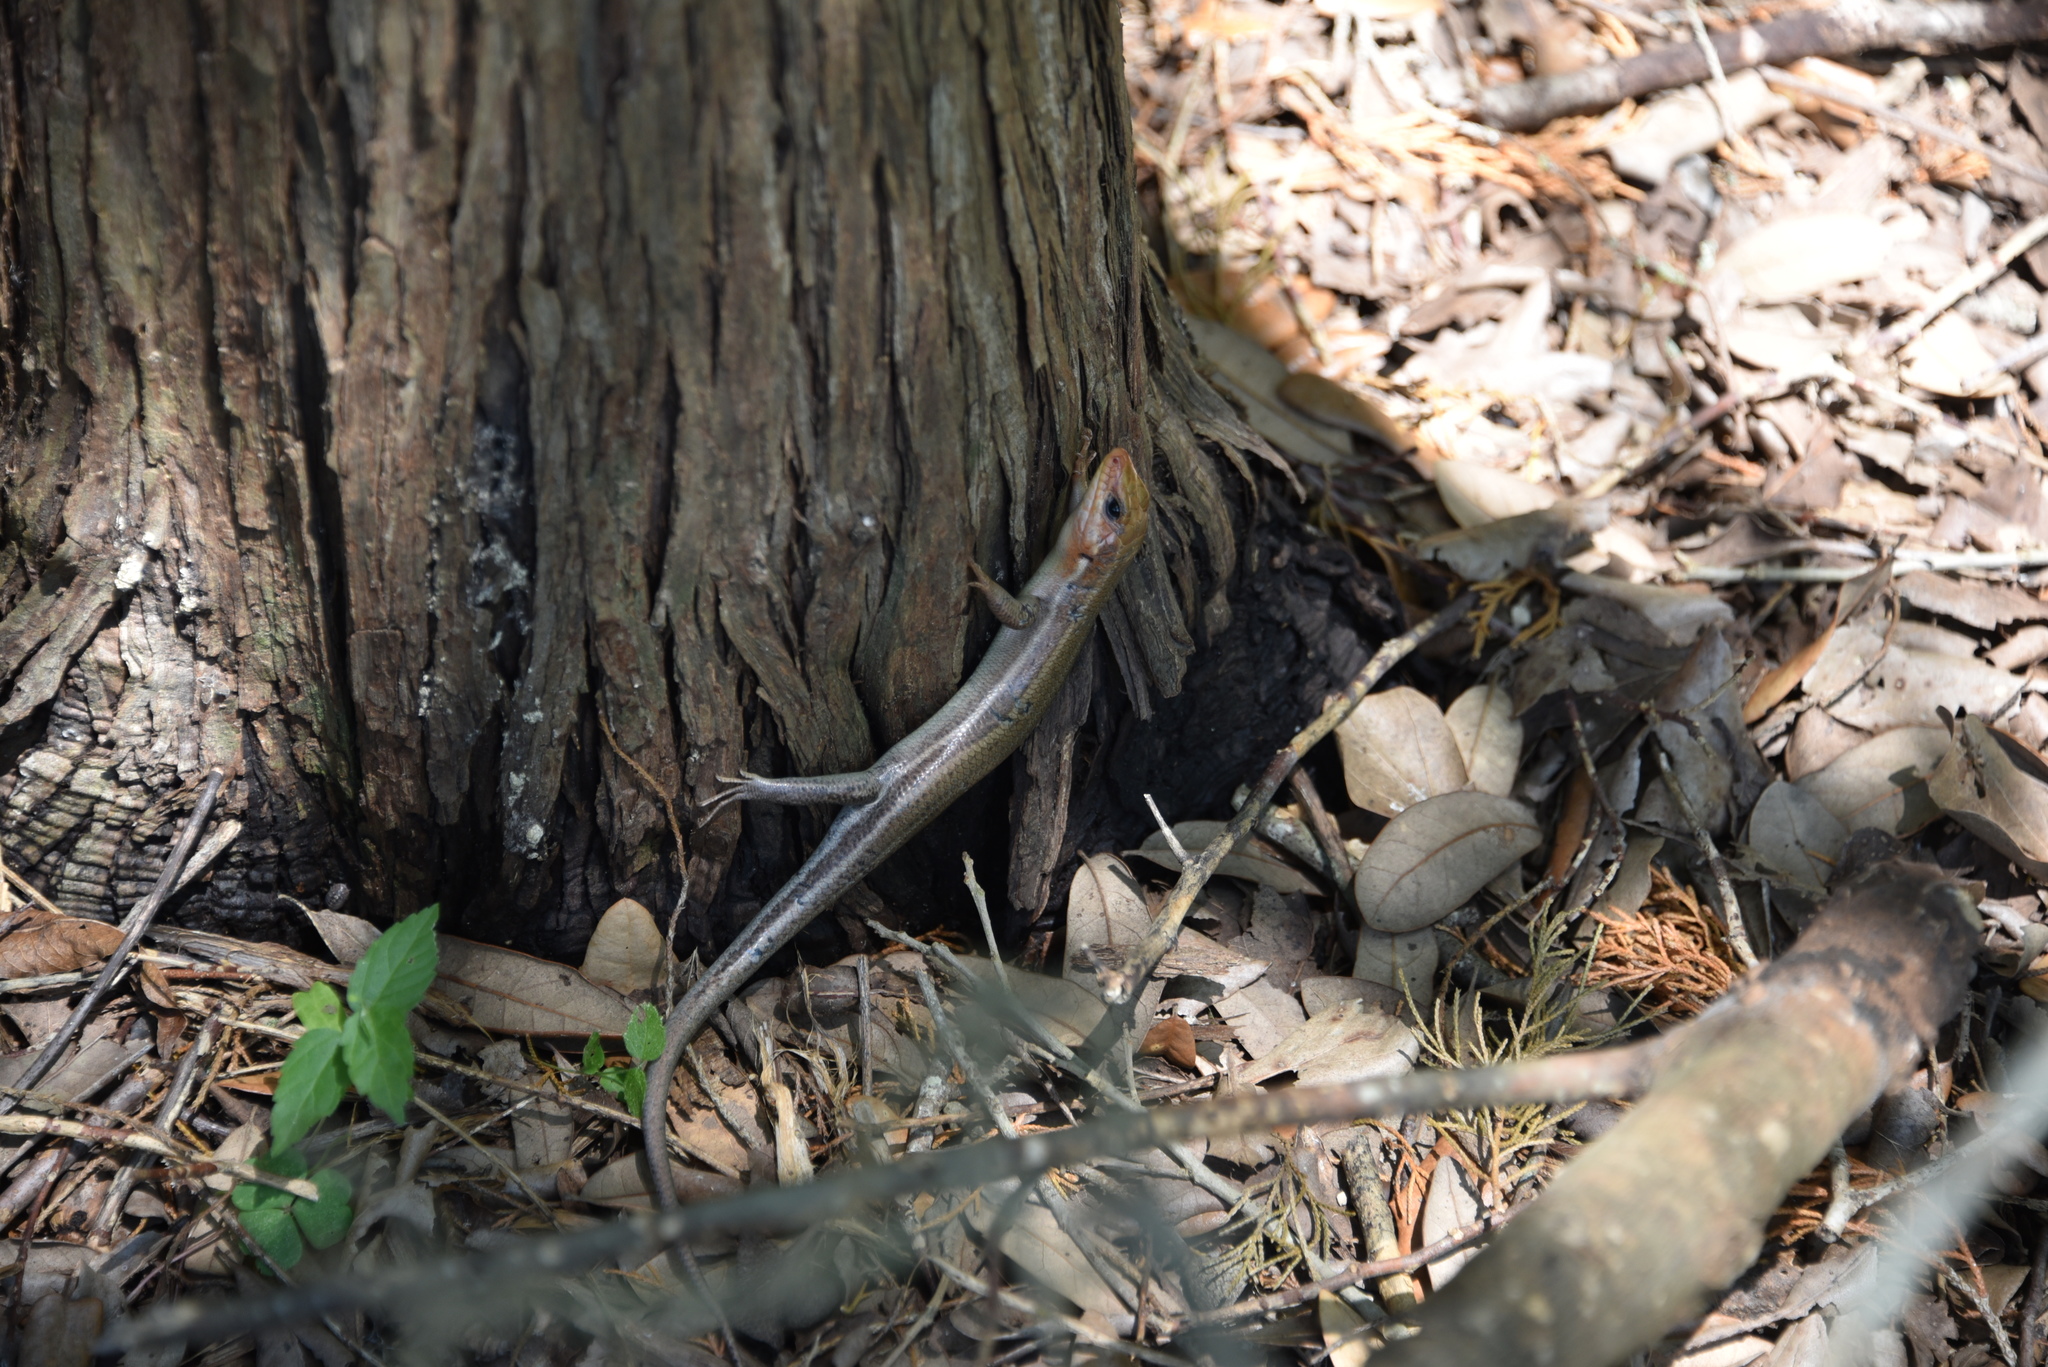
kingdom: Animalia
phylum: Chordata
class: Squamata
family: Scincidae
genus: Plestiodon
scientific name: Plestiodon laticeps
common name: Broadhead skink
